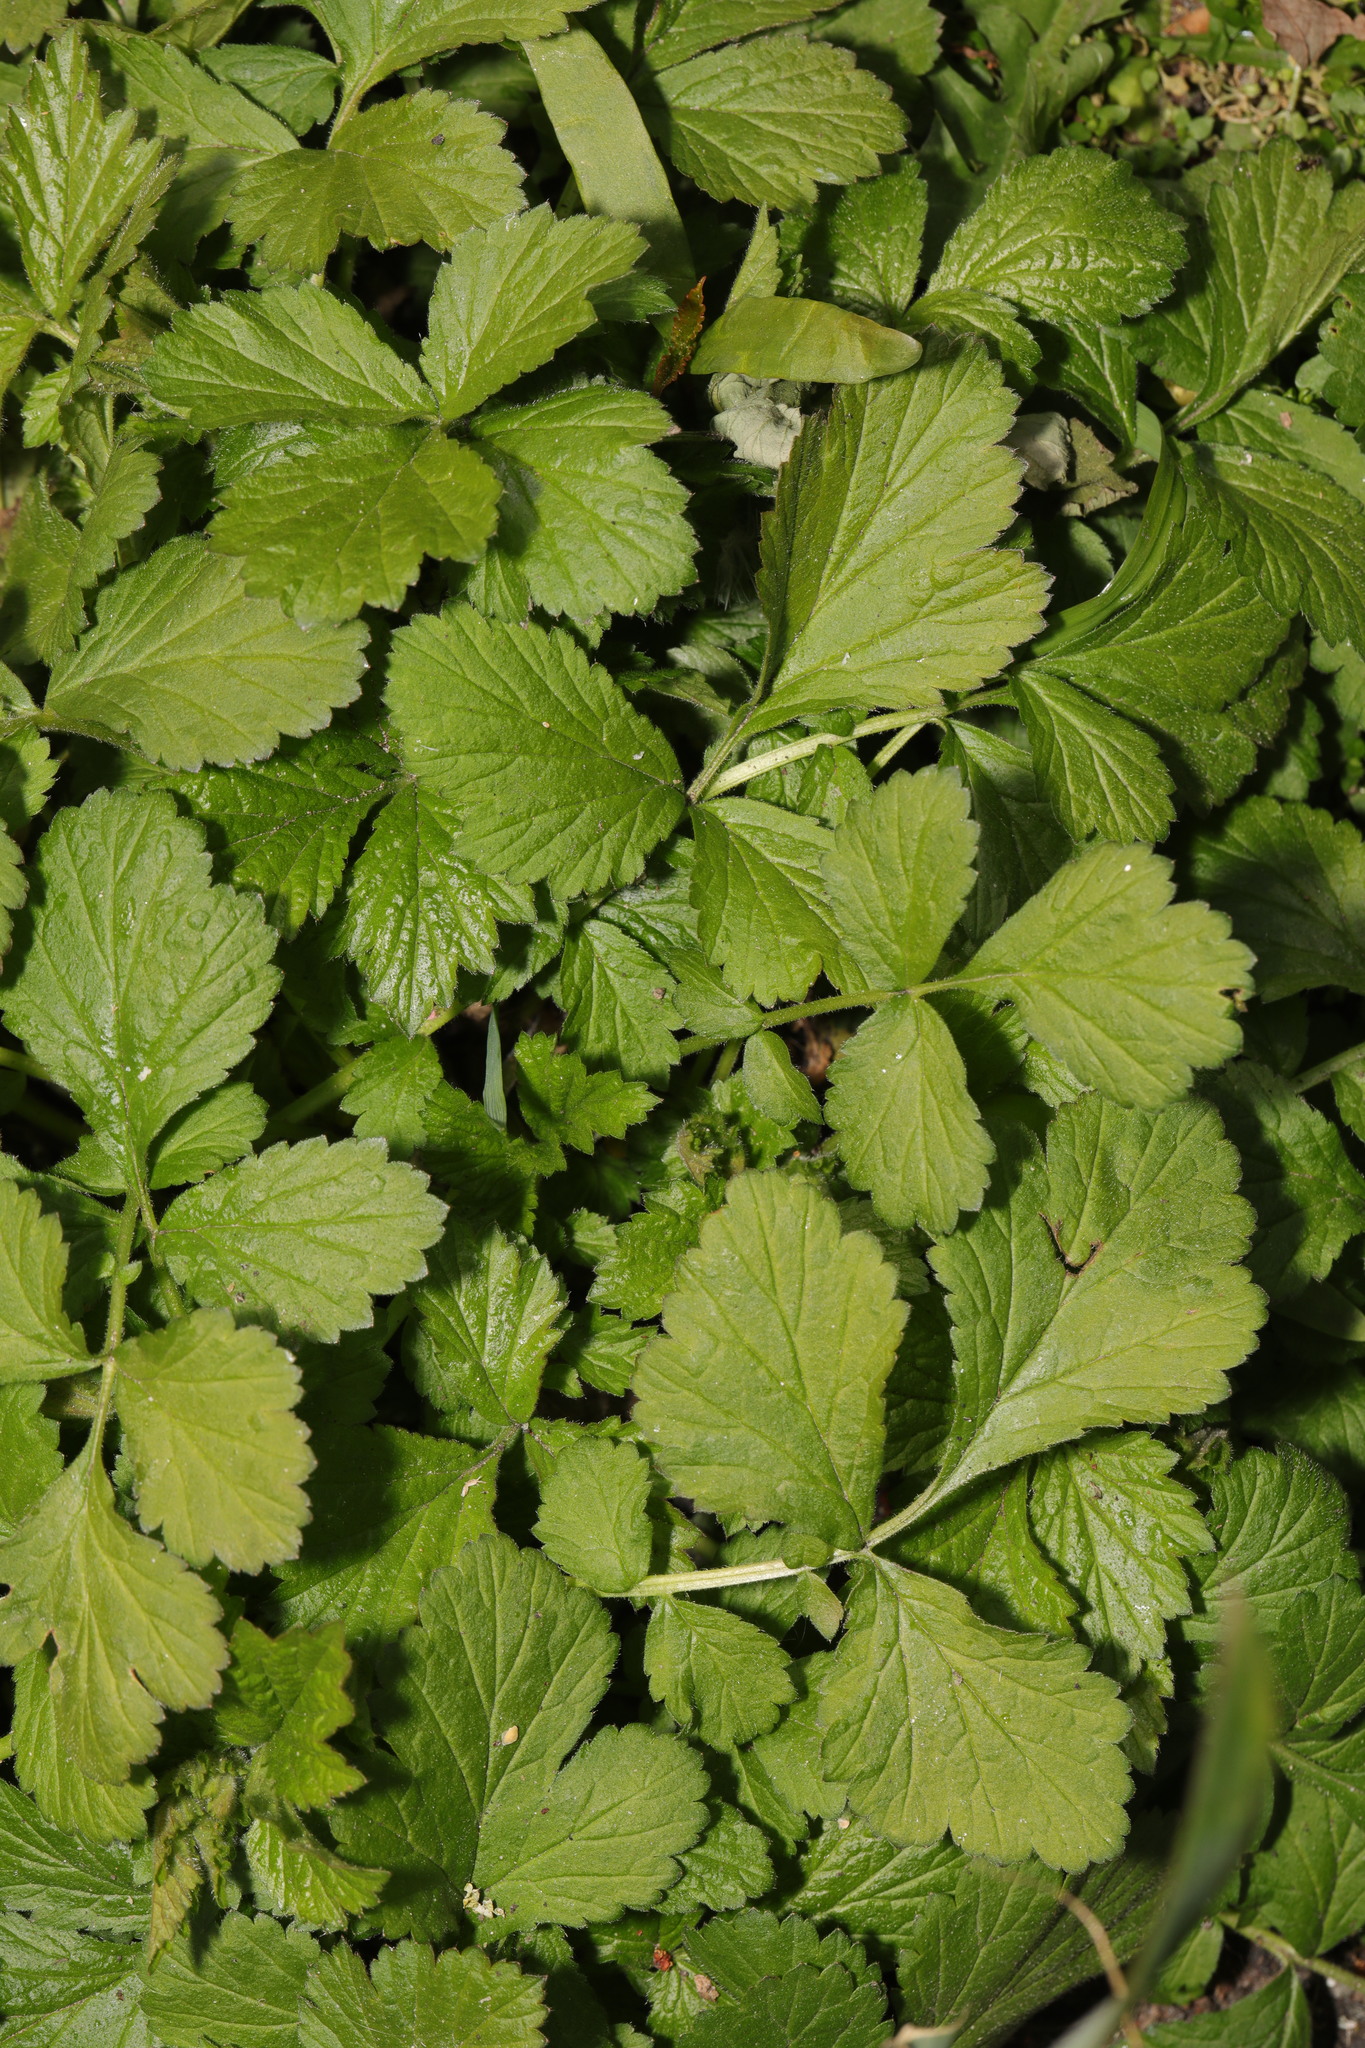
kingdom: Plantae
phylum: Tracheophyta
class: Magnoliopsida
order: Rosales
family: Rosaceae
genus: Geum
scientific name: Geum urbanum
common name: Wood avens
